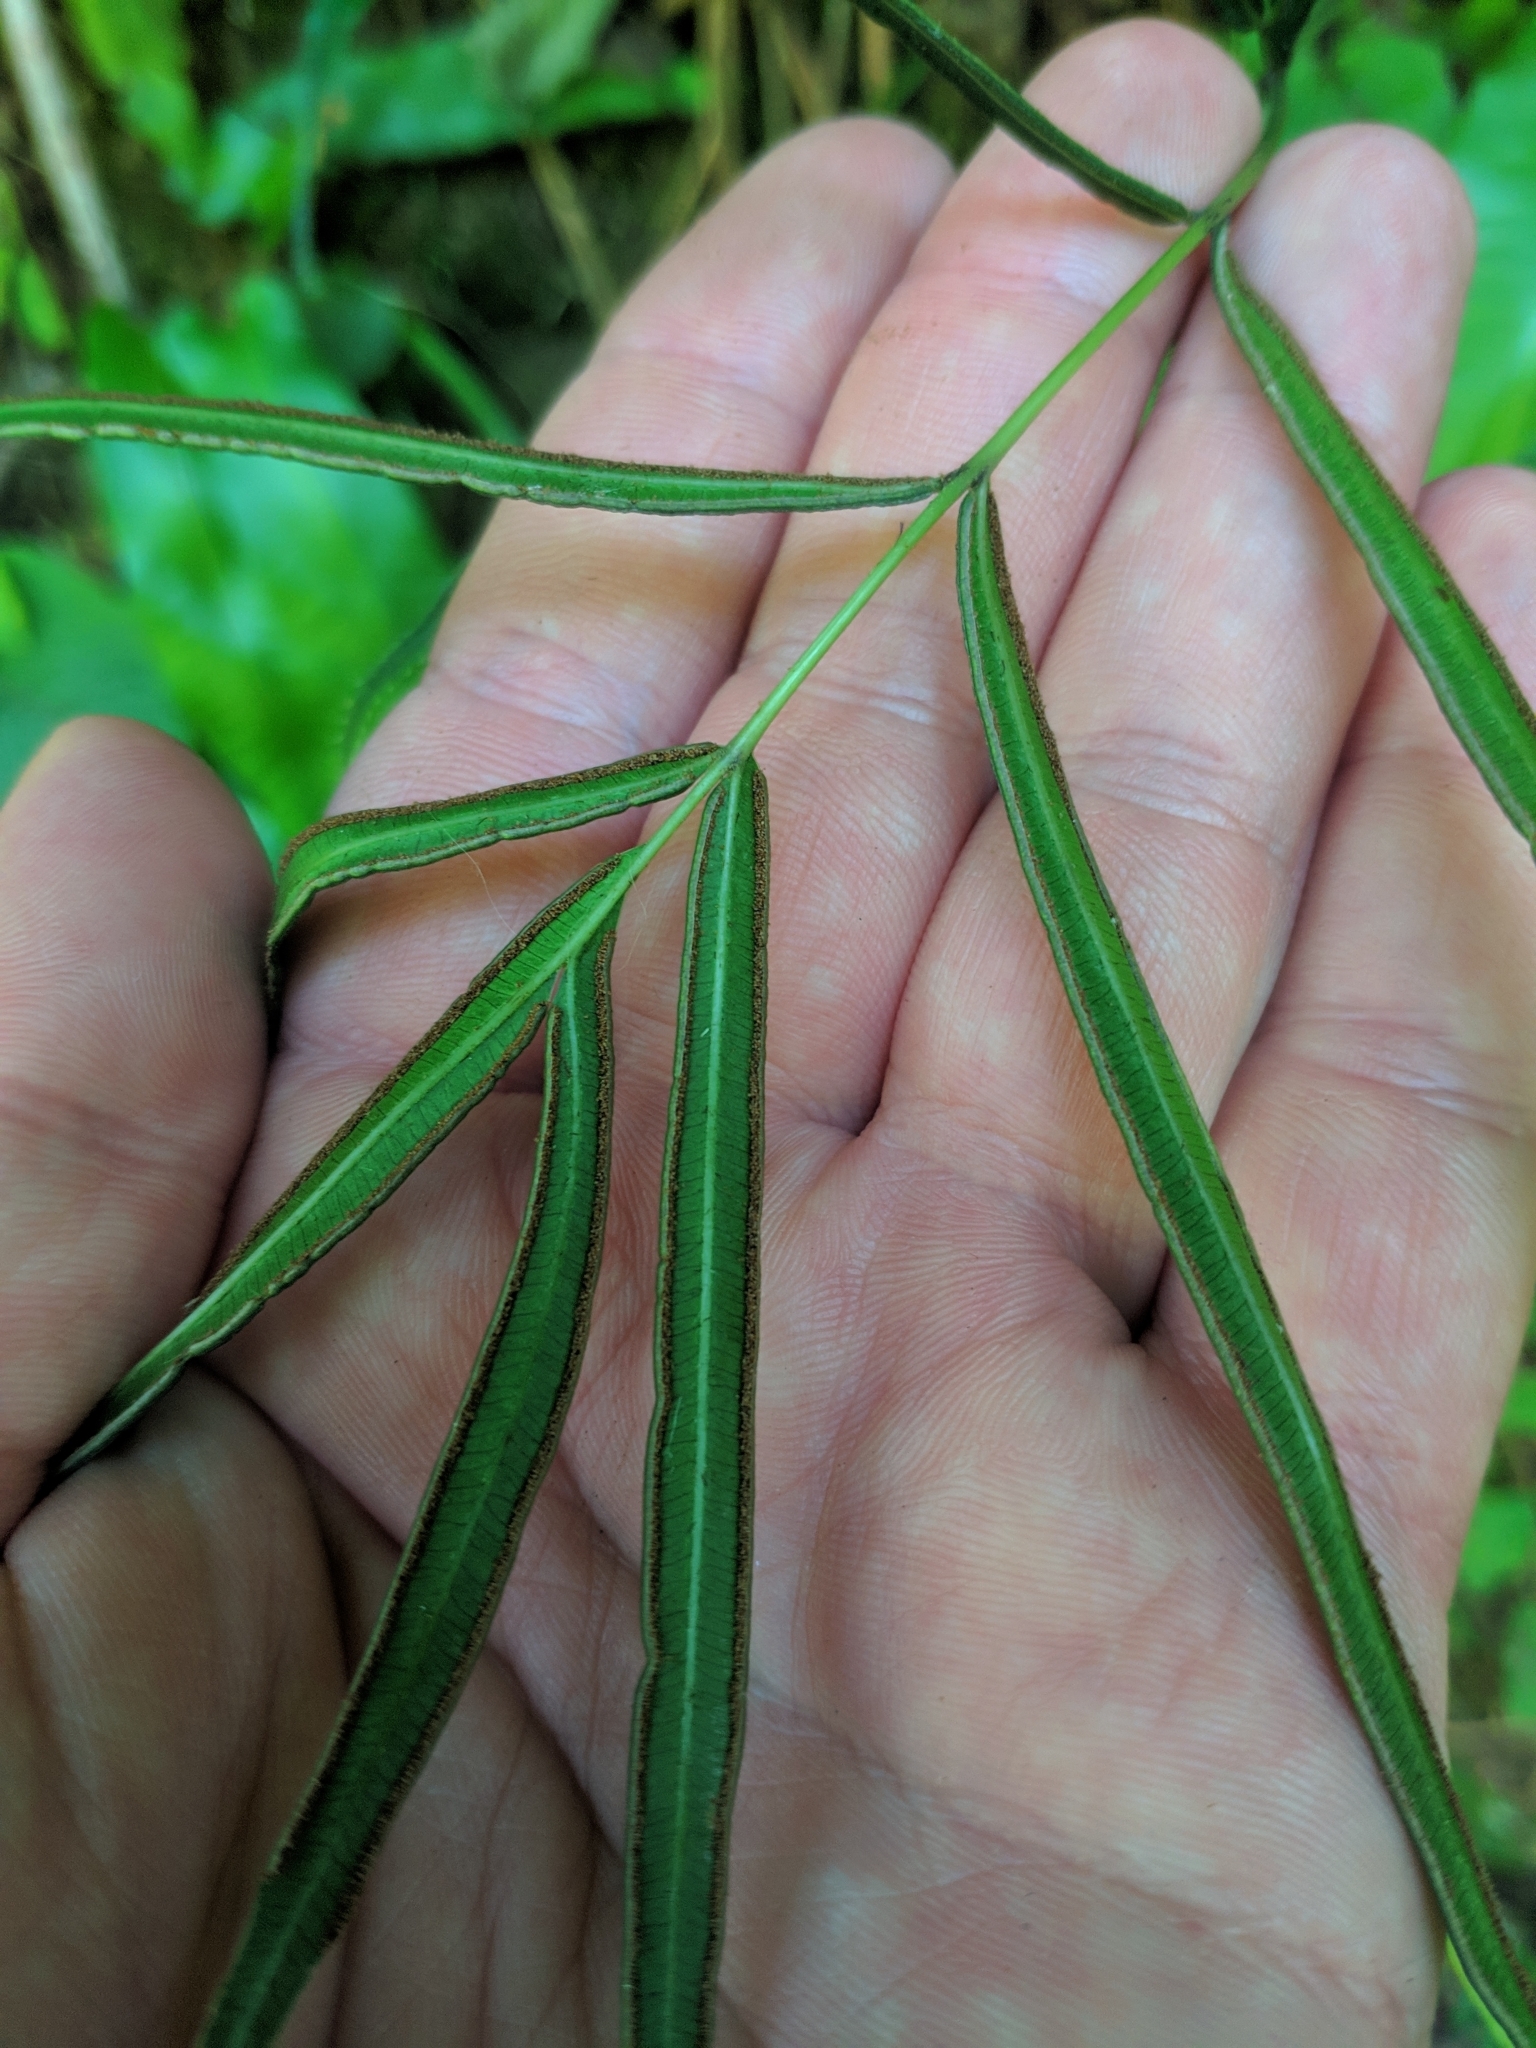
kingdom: Plantae
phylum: Tracheophyta
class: Polypodiopsida
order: Polypodiales
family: Pteridaceae
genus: Pteris
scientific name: Pteris cretica
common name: Ribbon fern
